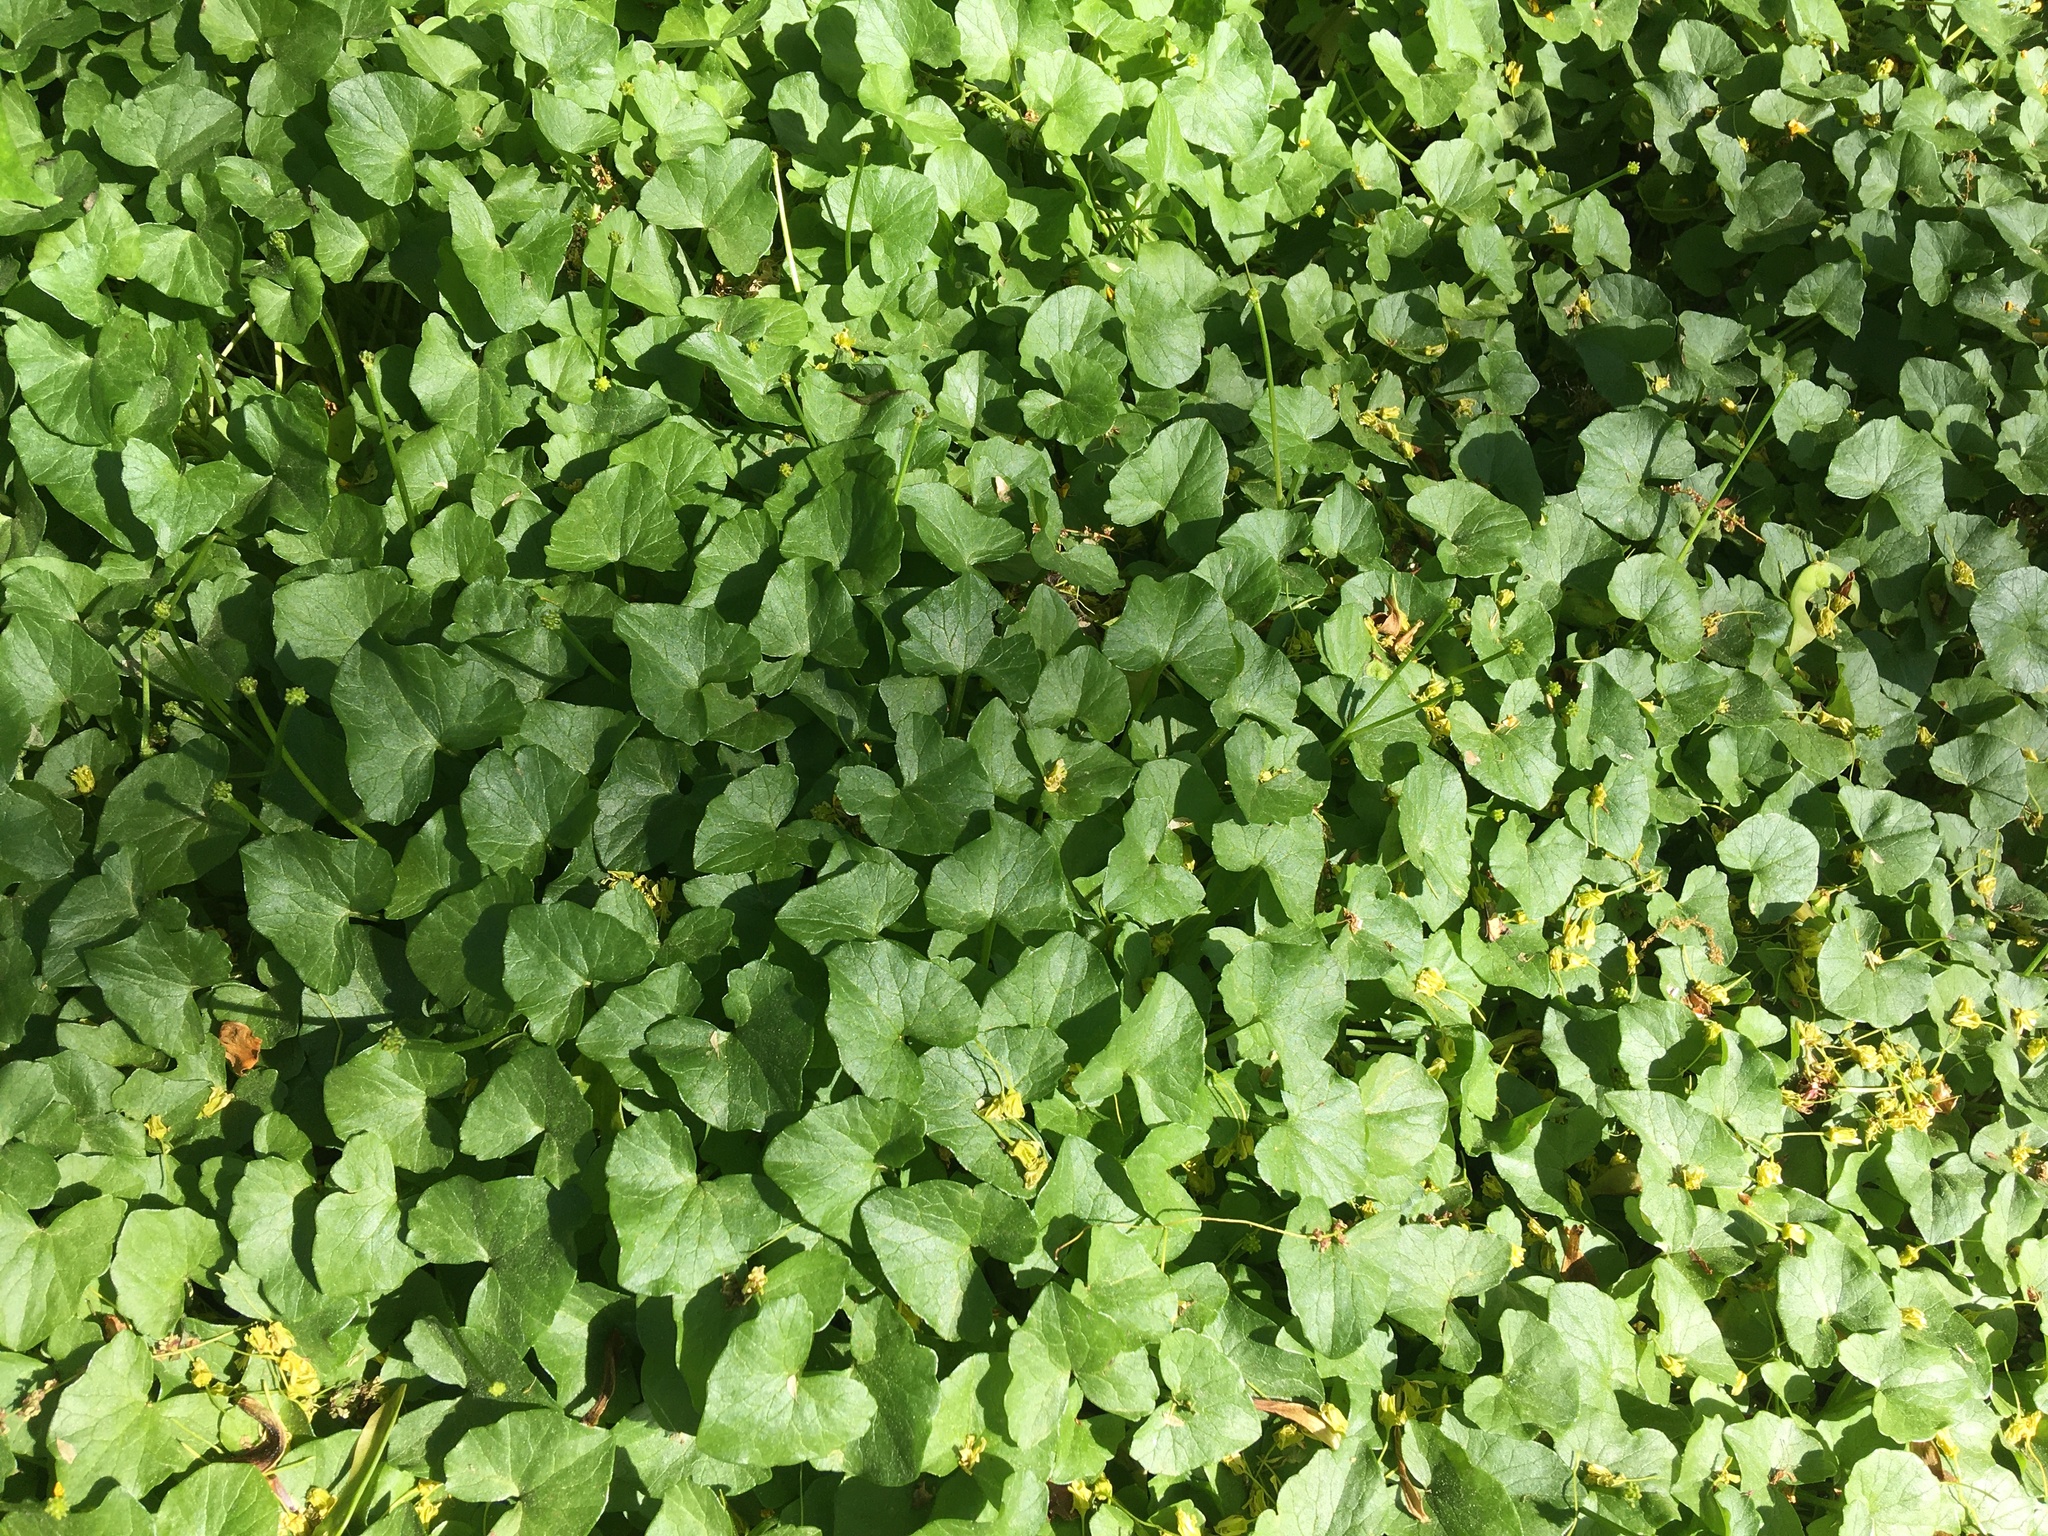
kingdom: Plantae
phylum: Tracheophyta
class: Magnoliopsida
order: Ranunculales
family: Ranunculaceae
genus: Ficaria
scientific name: Ficaria verna
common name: Lesser celandine
